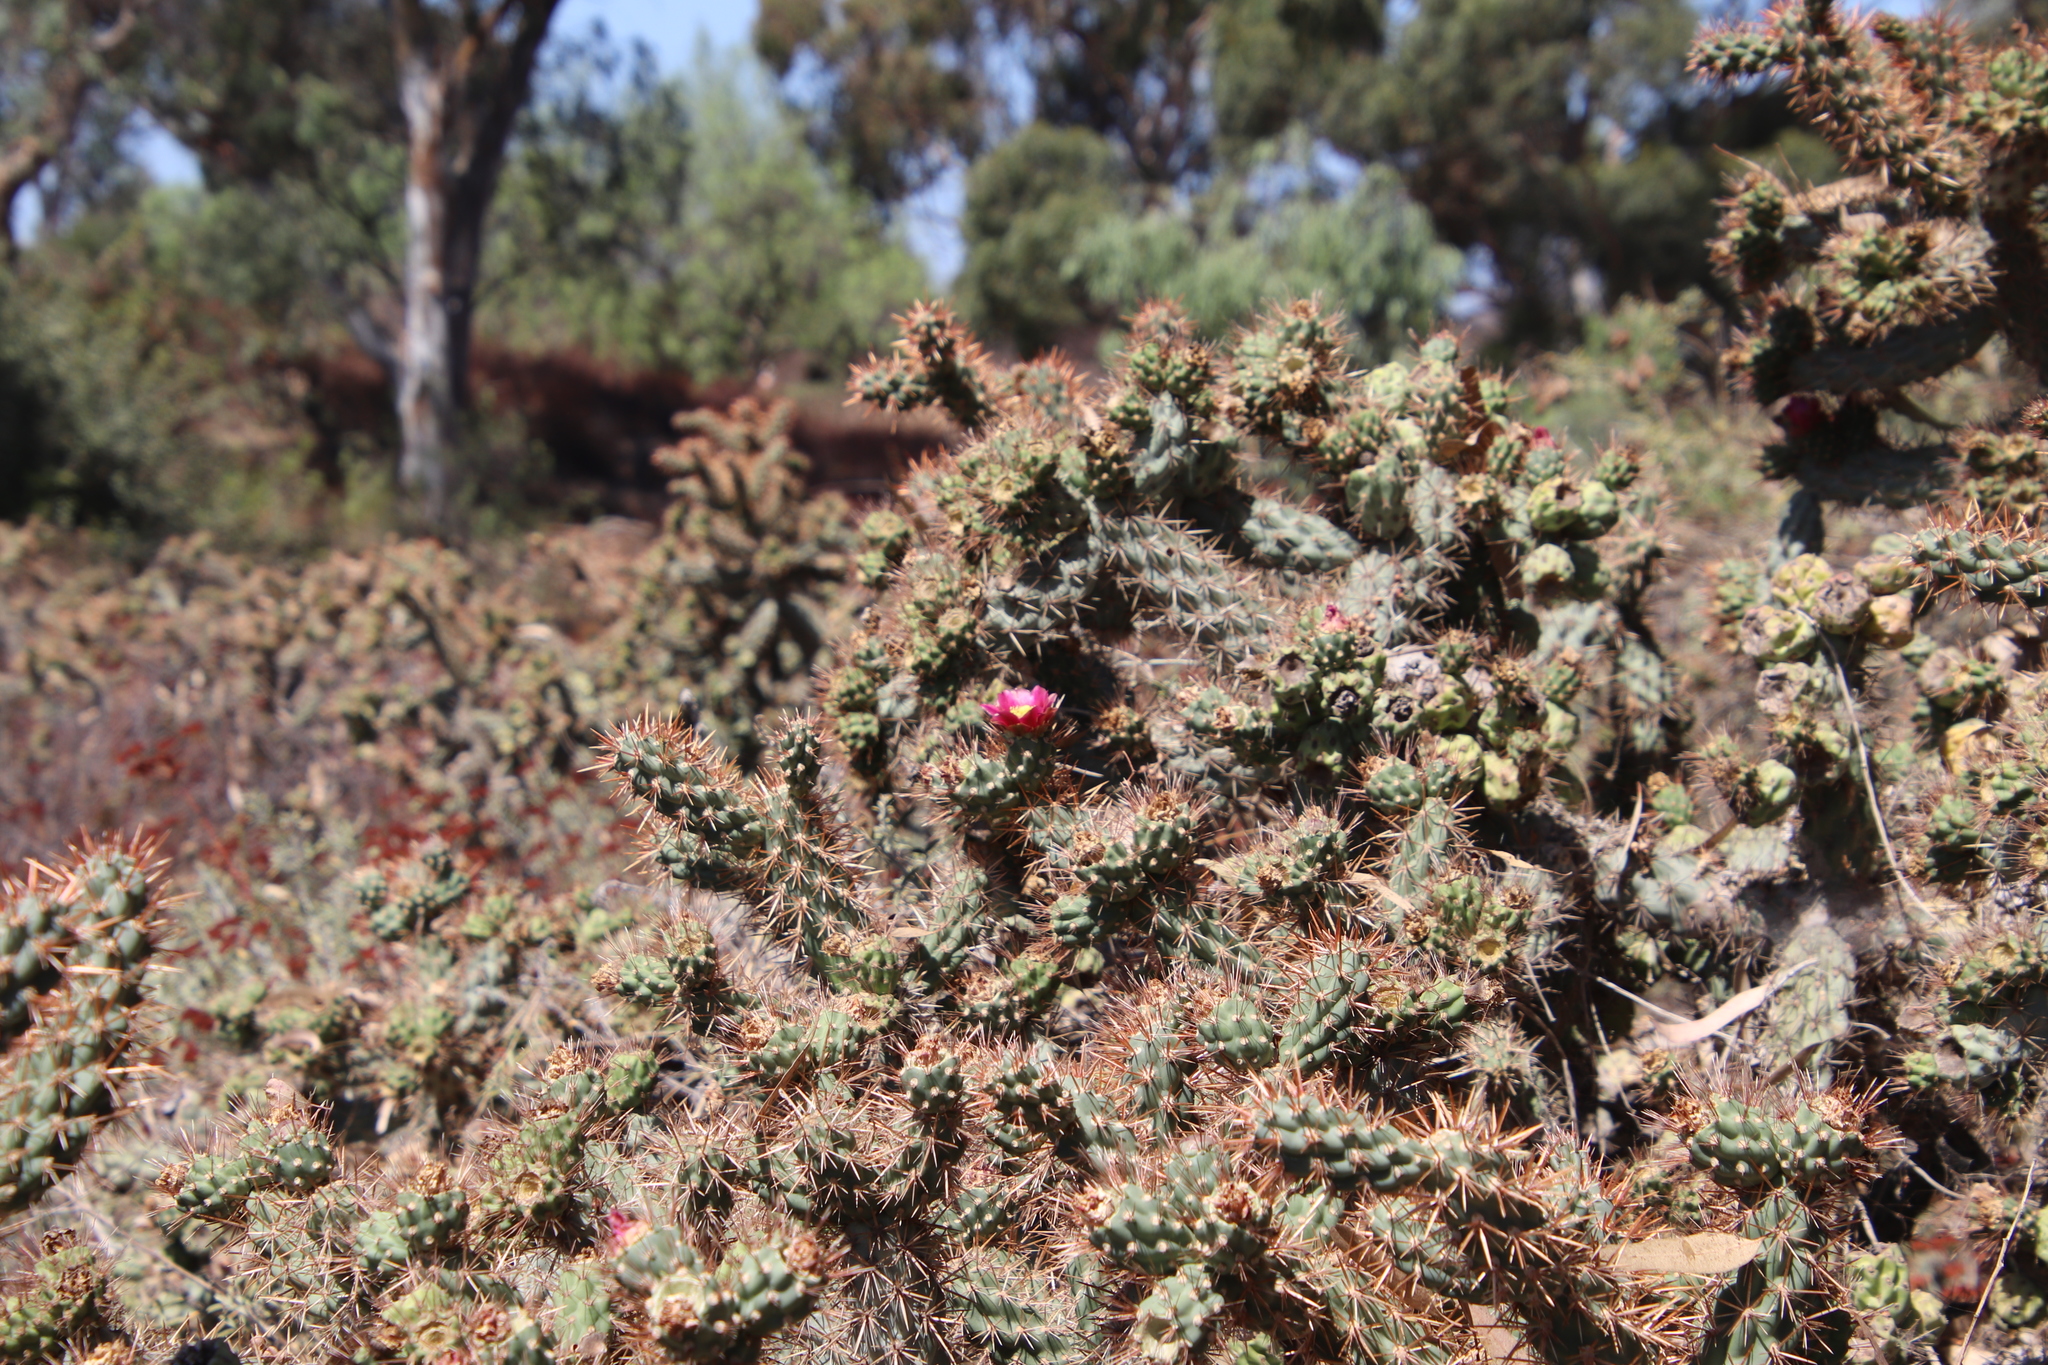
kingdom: Plantae
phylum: Tracheophyta
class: Magnoliopsida
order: Caryophyllales
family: Cactaceae
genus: Cylindropuntia
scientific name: Cylindropuntia prolifera
